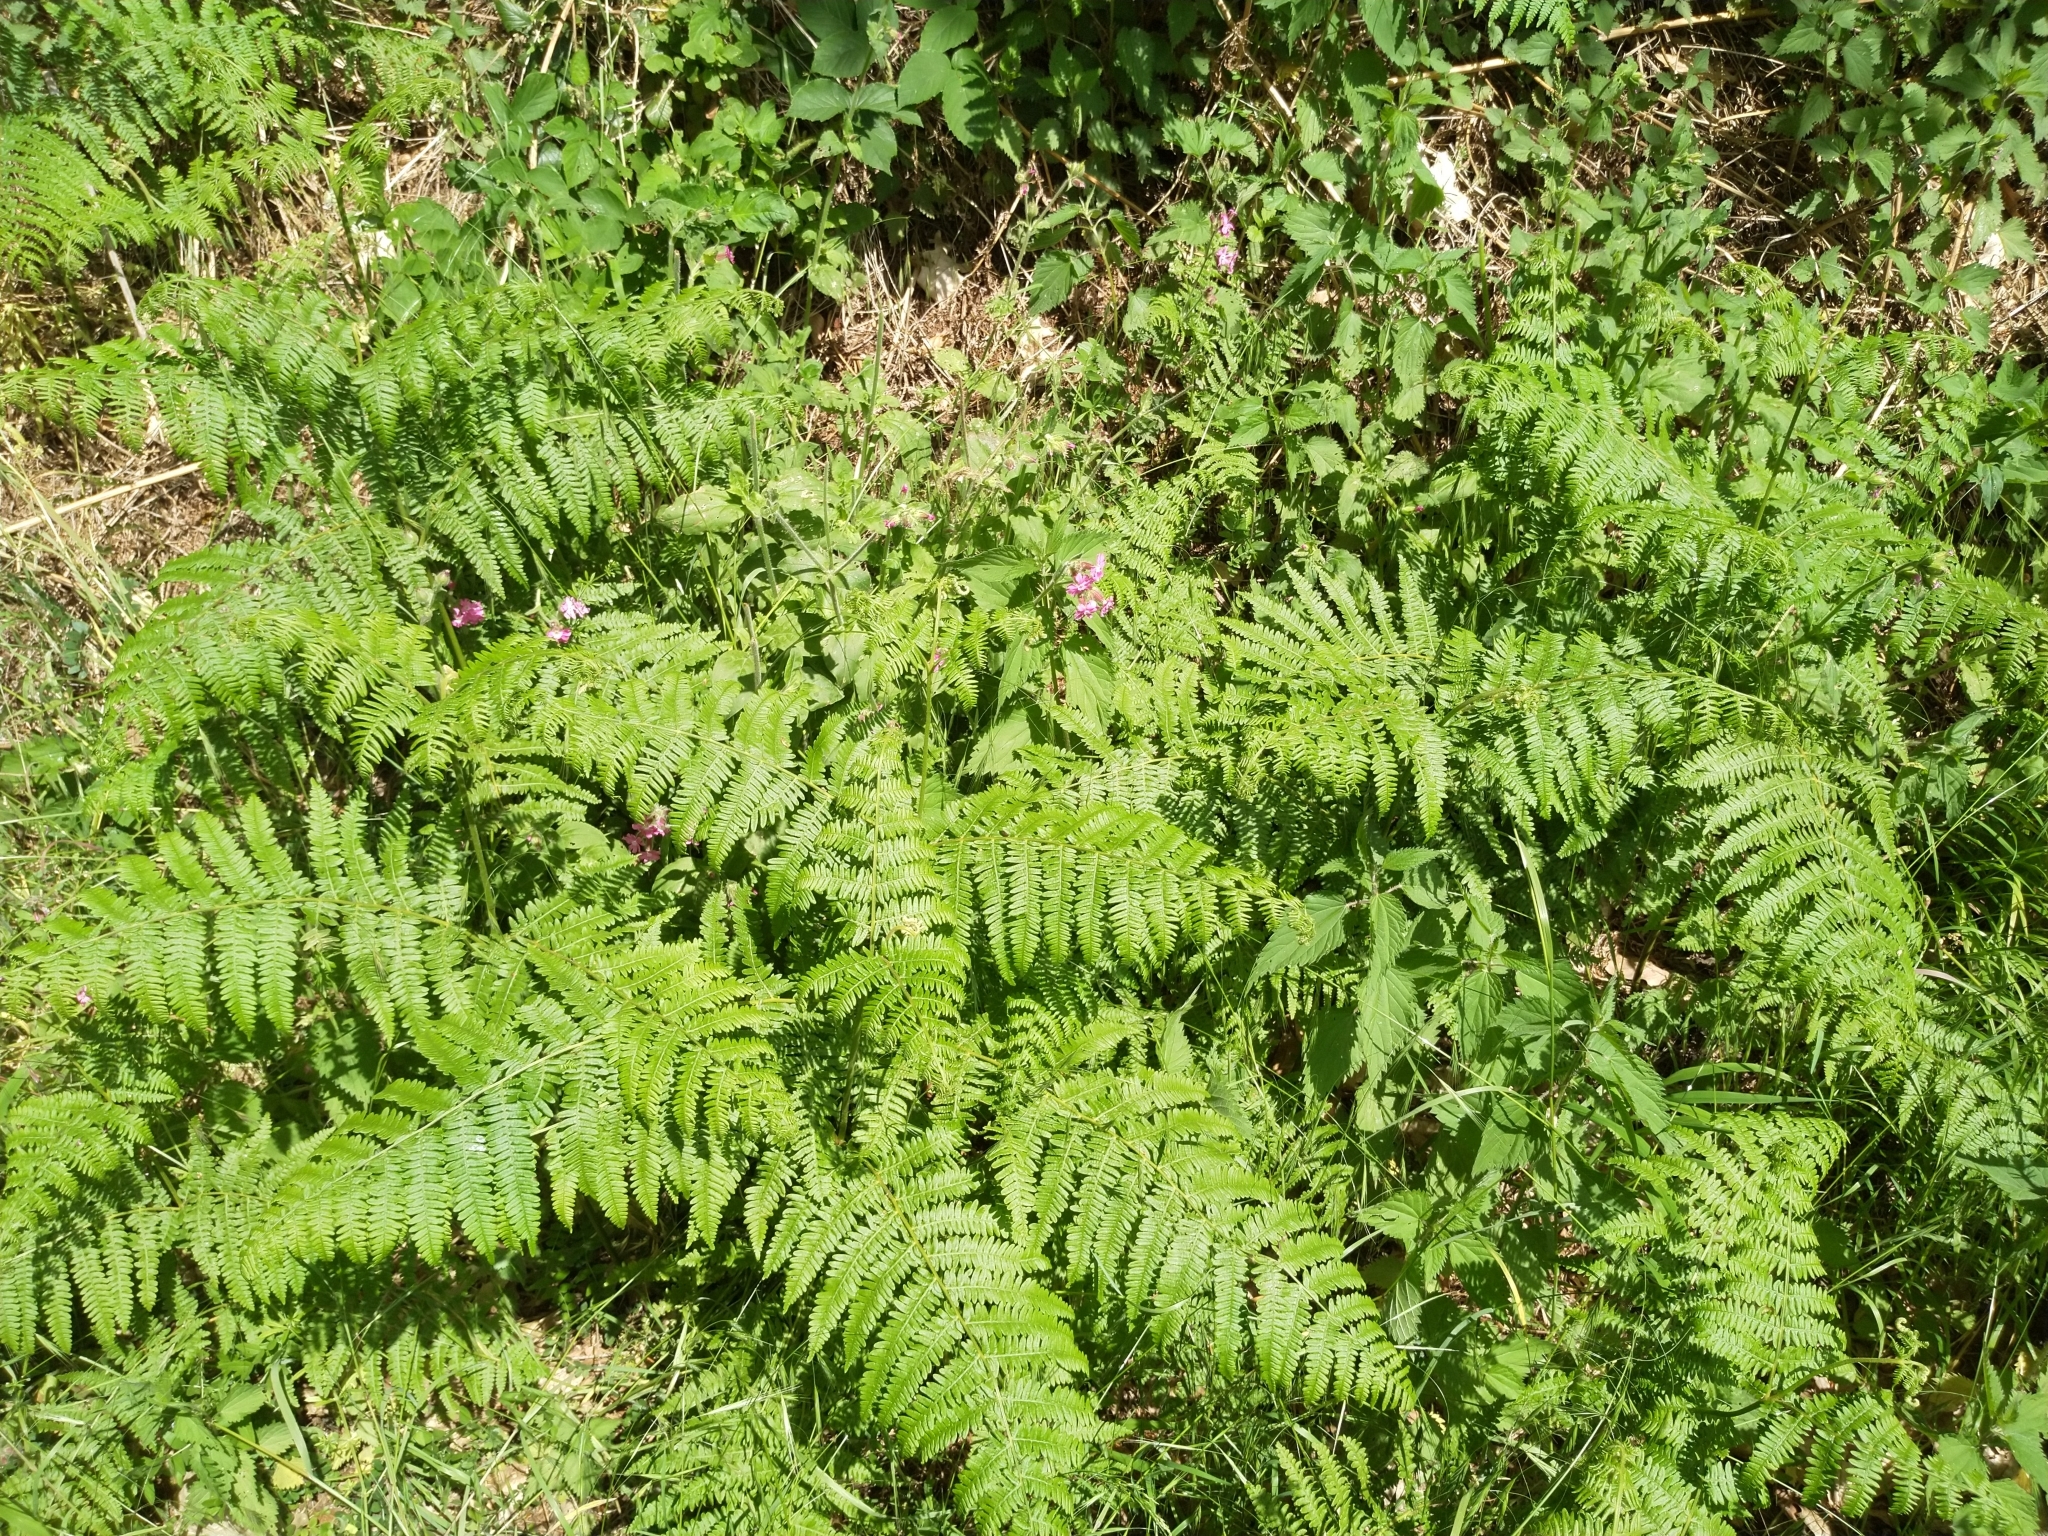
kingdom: Plantae
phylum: Tracheophyta
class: Polypodiopsida
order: Polypodiales
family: Dennstaedtiaceae
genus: Pteridium
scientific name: Pteridium aquilinum
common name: Bracken
